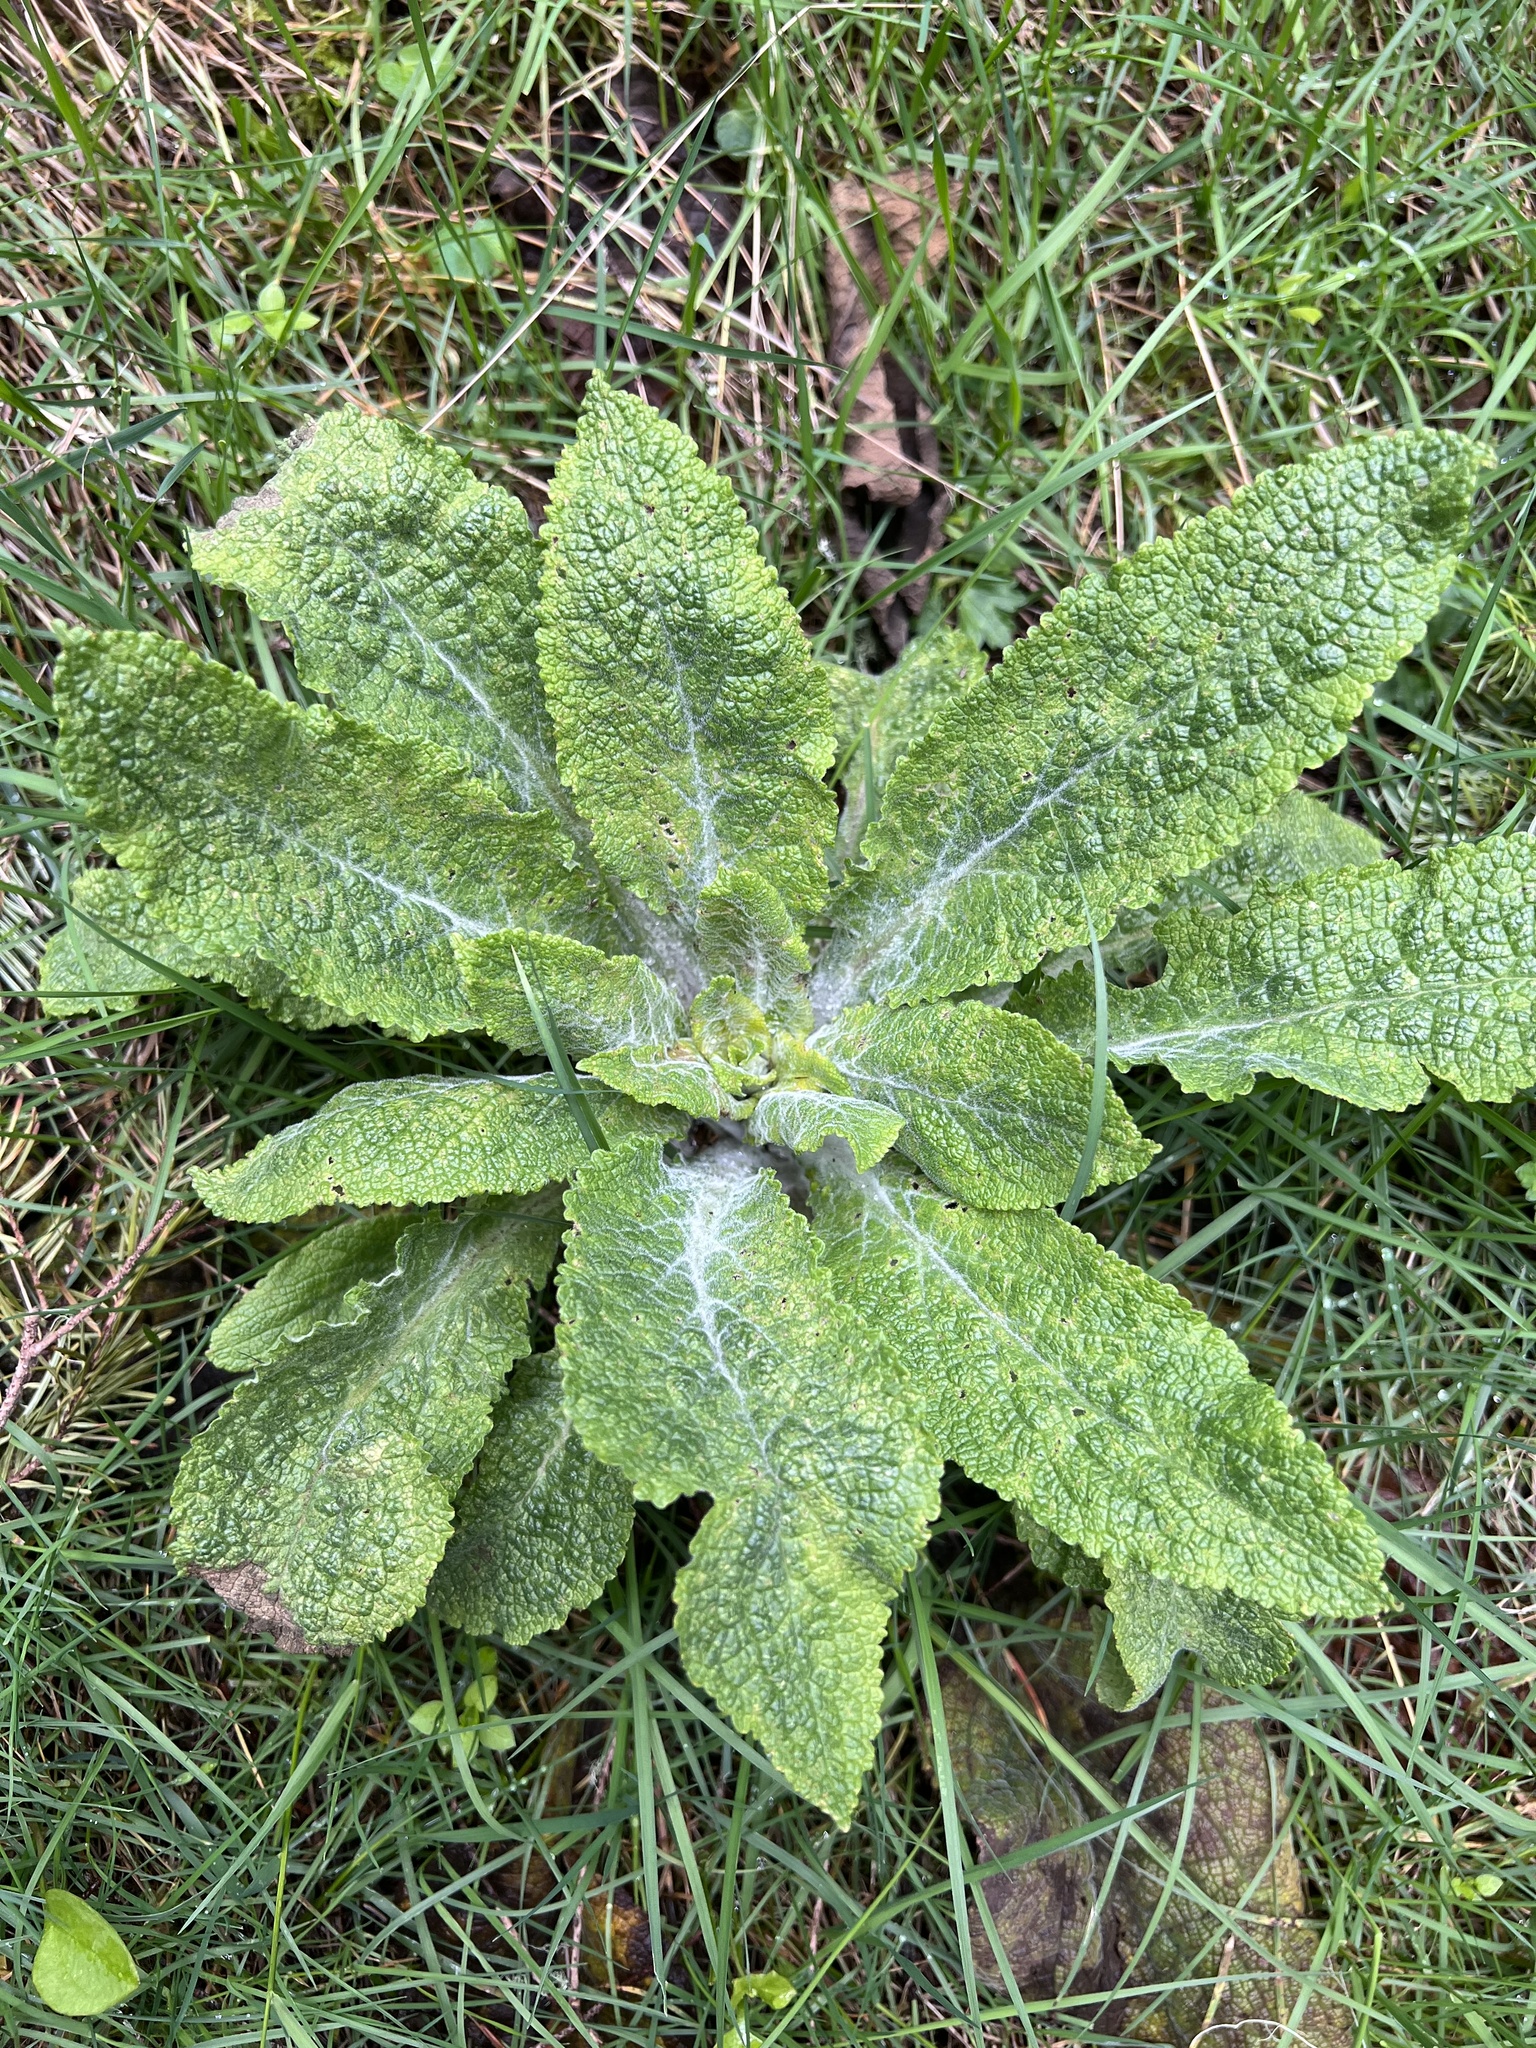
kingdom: Plantae
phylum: Tracheophyta
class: Magnoliopsida
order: Lamiales
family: Plantaginaceae
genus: Digitalis
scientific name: Digitalis purpurea
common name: Foxglove
